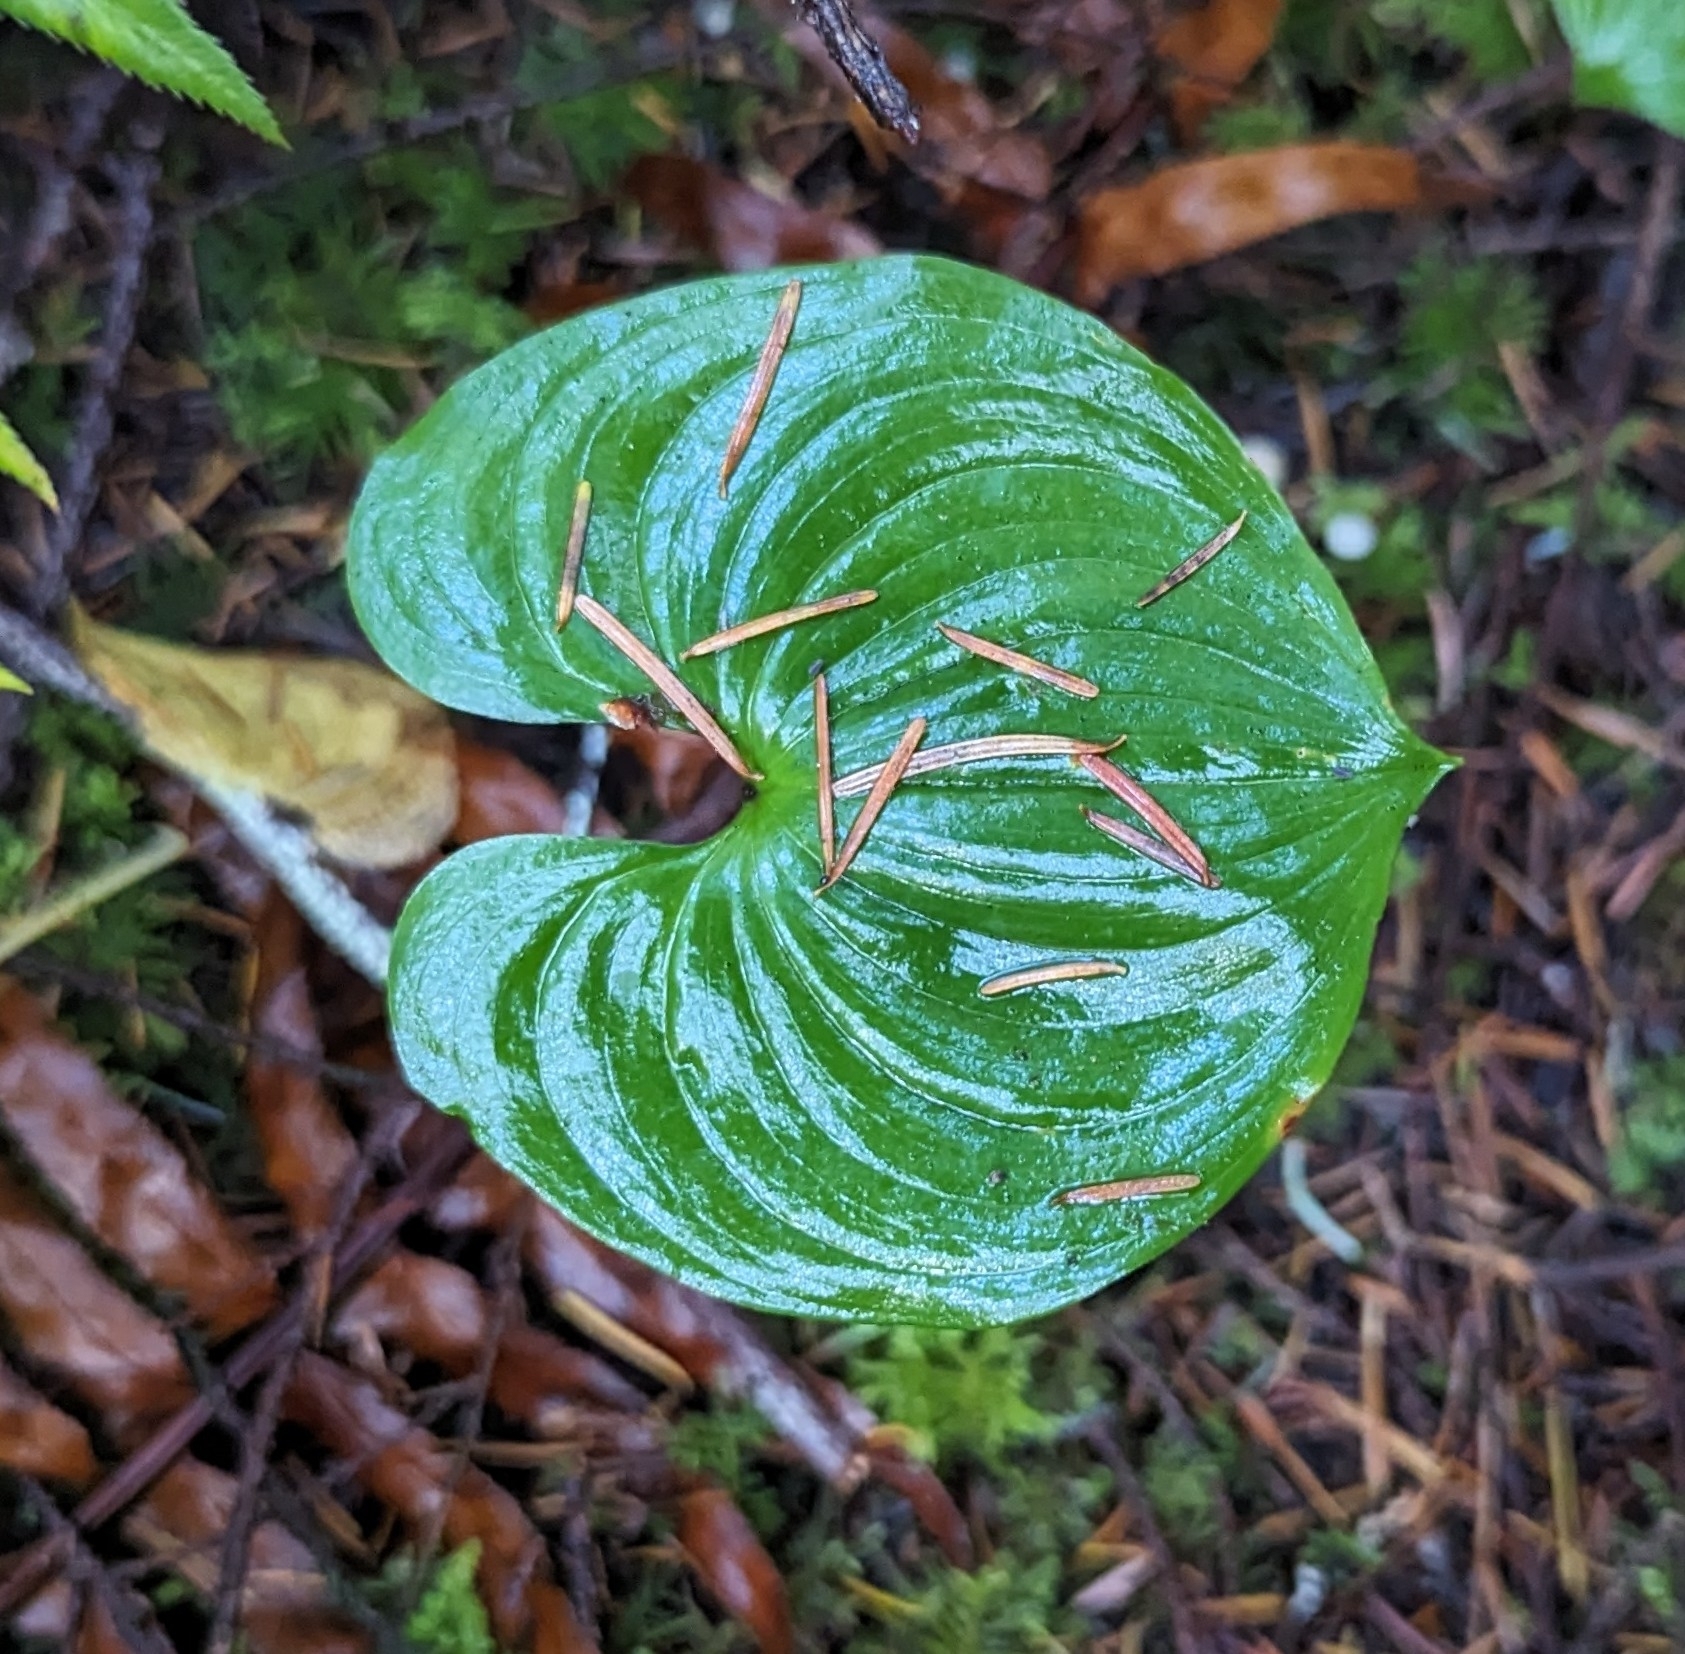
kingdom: Plantae
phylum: Tracheophyta
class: Liliopsida
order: Asparagales
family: Asparagaceae
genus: Maianthemum
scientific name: Maianthemum dilatatum
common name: False lily-of-the-valley
